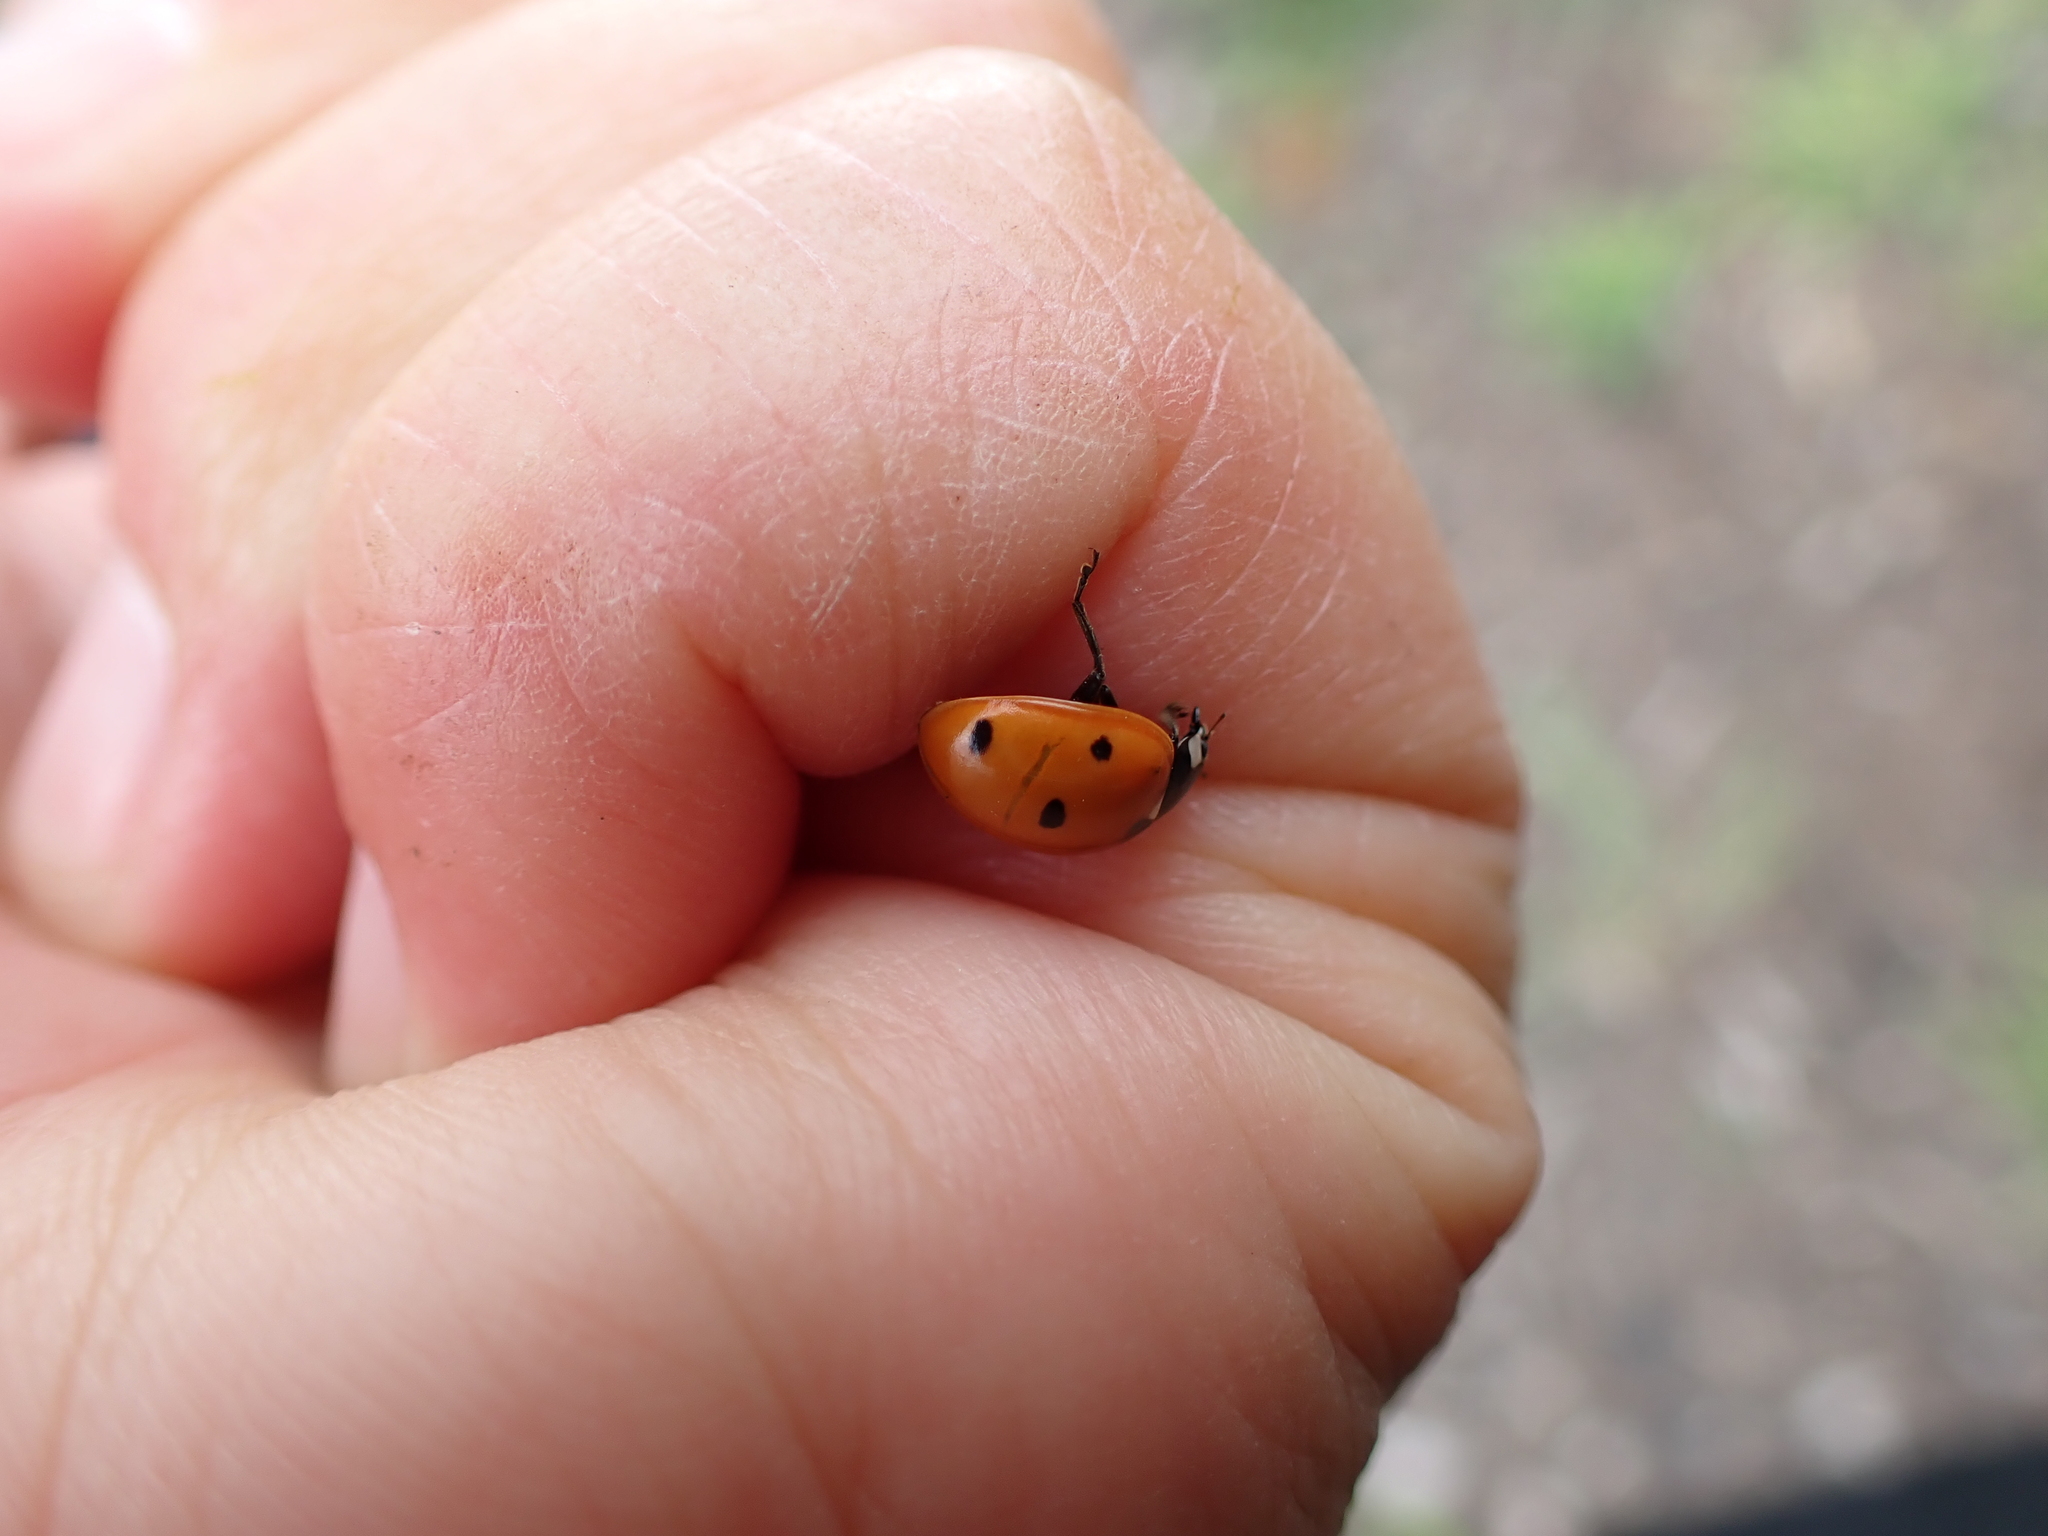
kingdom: Animalia
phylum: Arthropoda
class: Insecta
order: Coleoptera
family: Coccinellidae
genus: Coccinella
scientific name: Coccinella septempunctata
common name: Sevenspotted lady beetle
